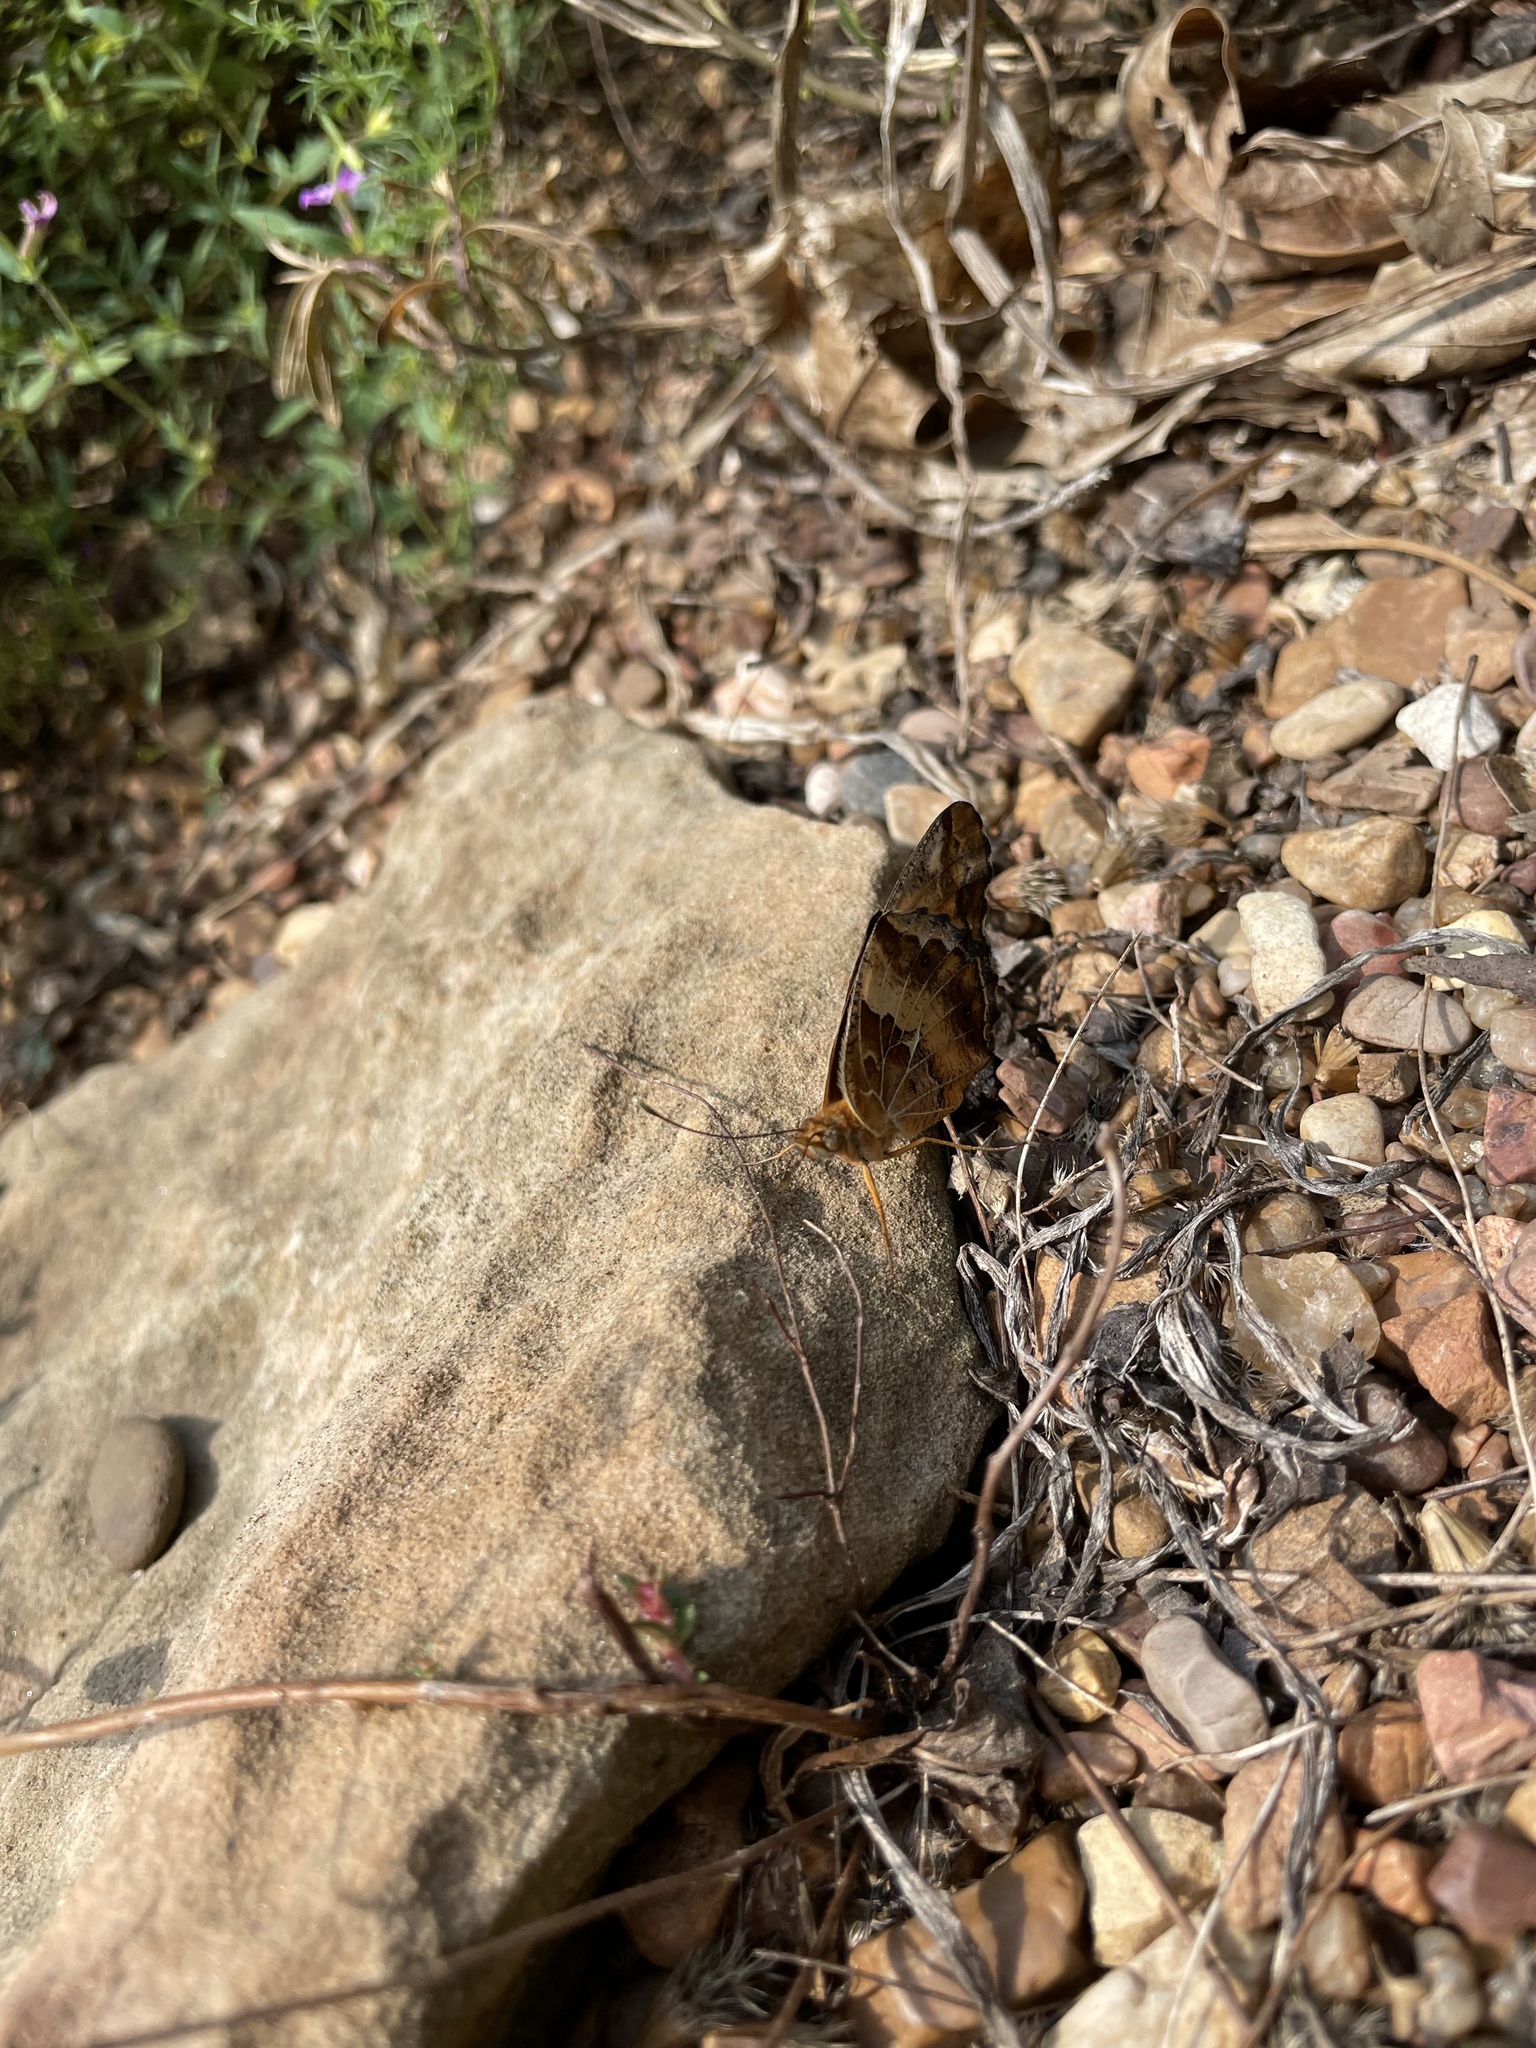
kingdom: Animalia
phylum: Arthropoda
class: Insecta
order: Lepidoptera
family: Nymphalidae
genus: Euptoieta
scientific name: Euptoieta claudia
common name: Variegated fritillary
